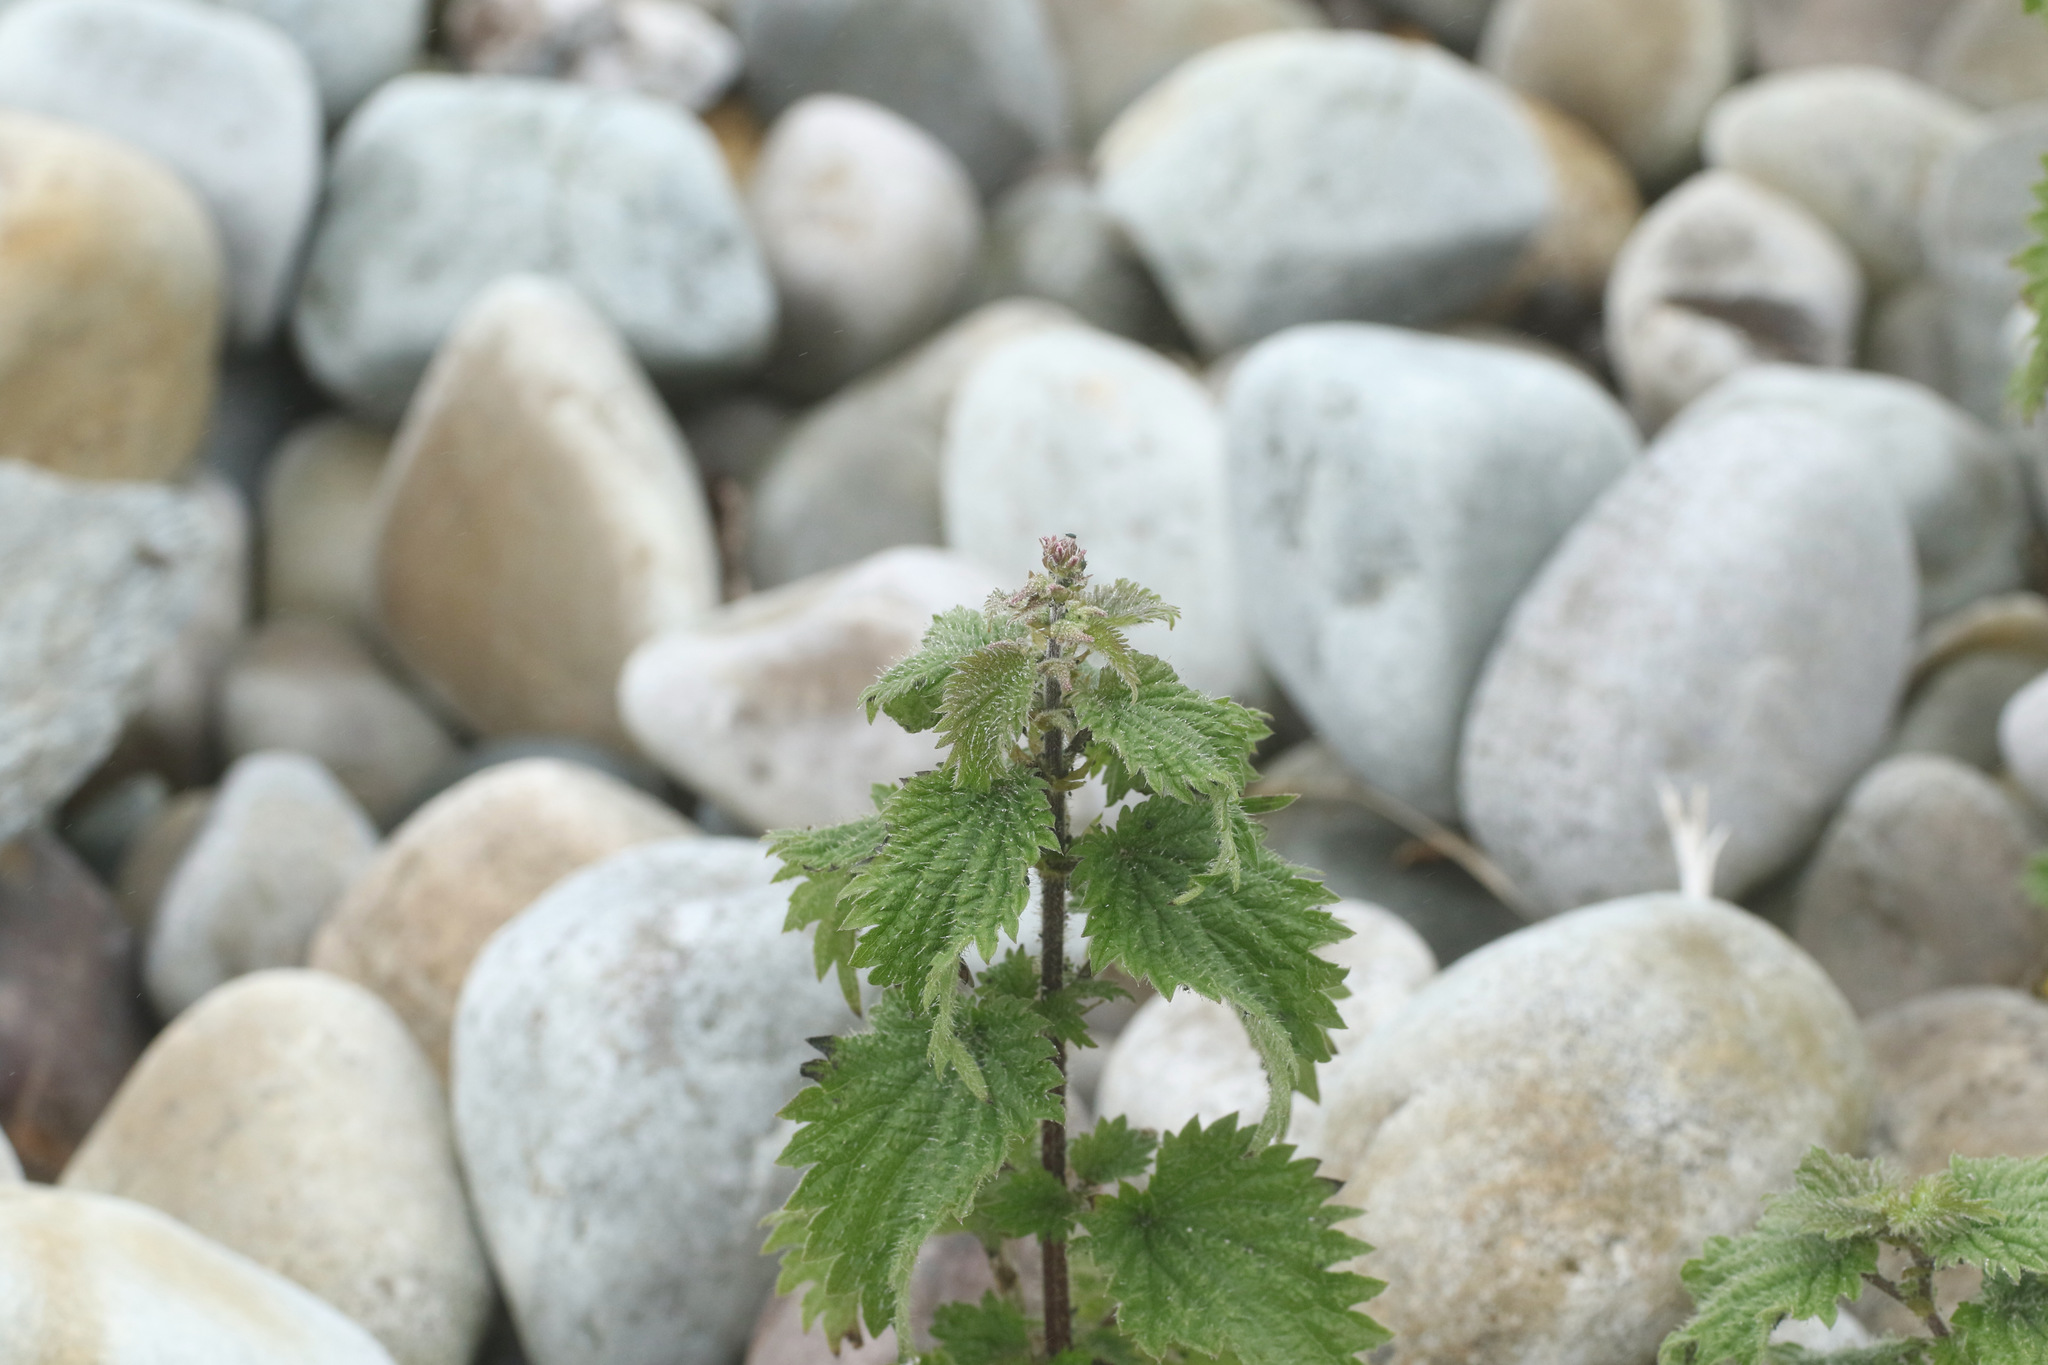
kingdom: Plantae
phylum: Tracheophyta
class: Magnoliopsida
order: Rosales
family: Urticaceae
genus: Urtica
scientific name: Urtica dioica
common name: Common nettle
